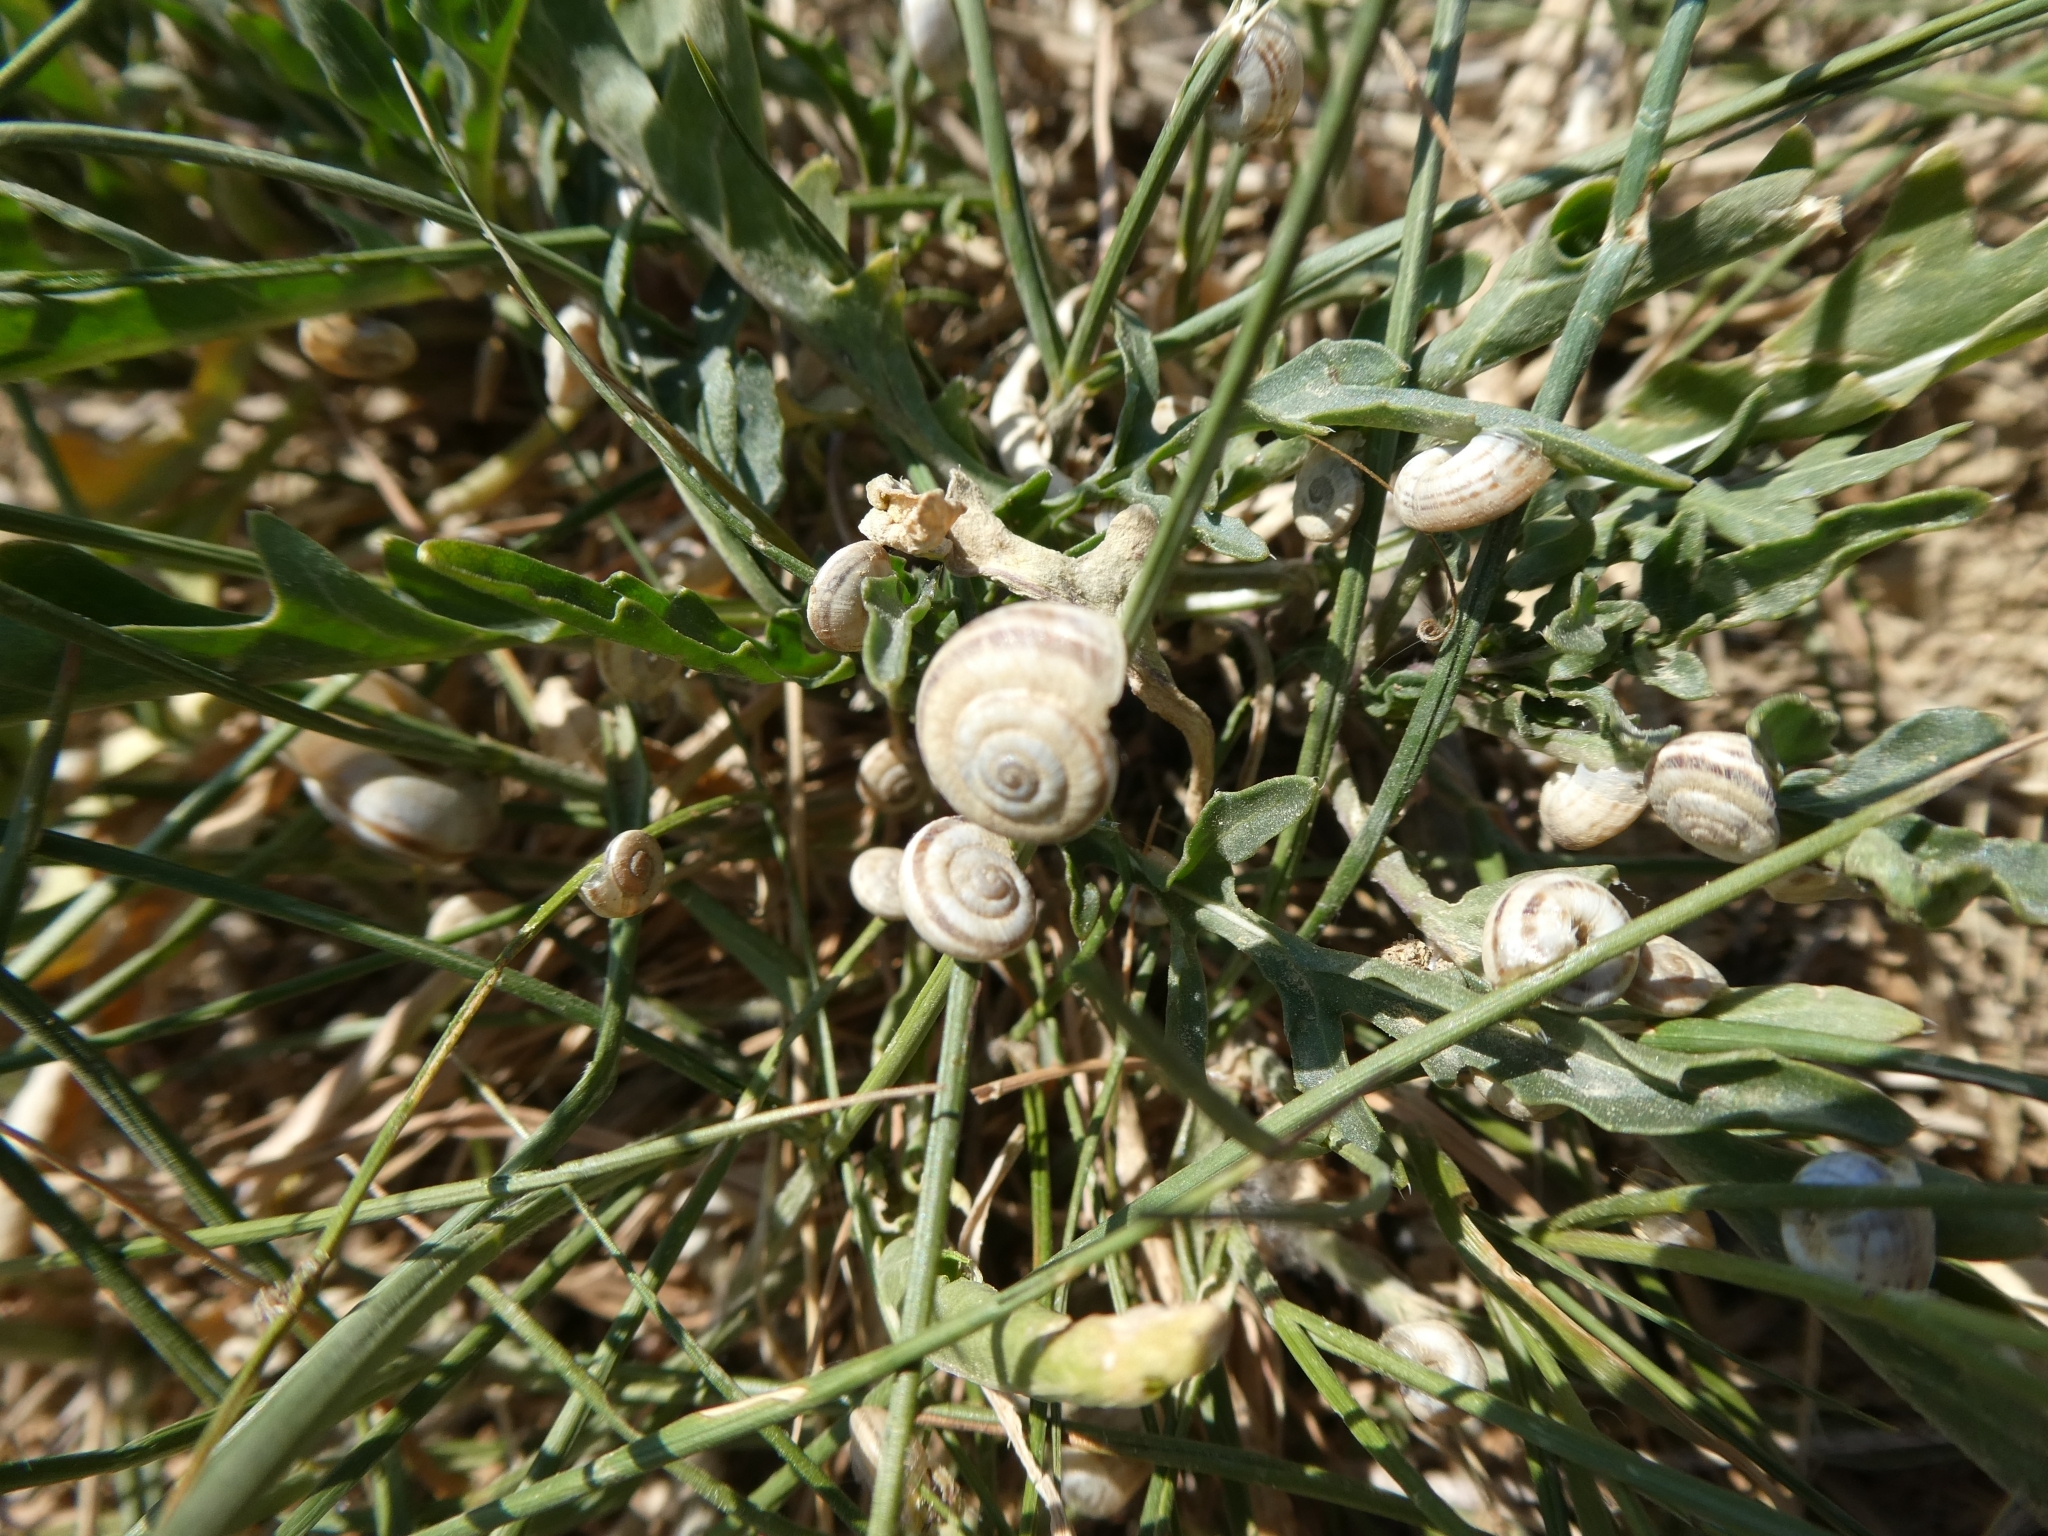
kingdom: Animalia
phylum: Mollusca
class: Gastropoda
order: Stylommatophora
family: Geomitridae
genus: Xerolenta
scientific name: Xerolenta obvia
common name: White heath snail
